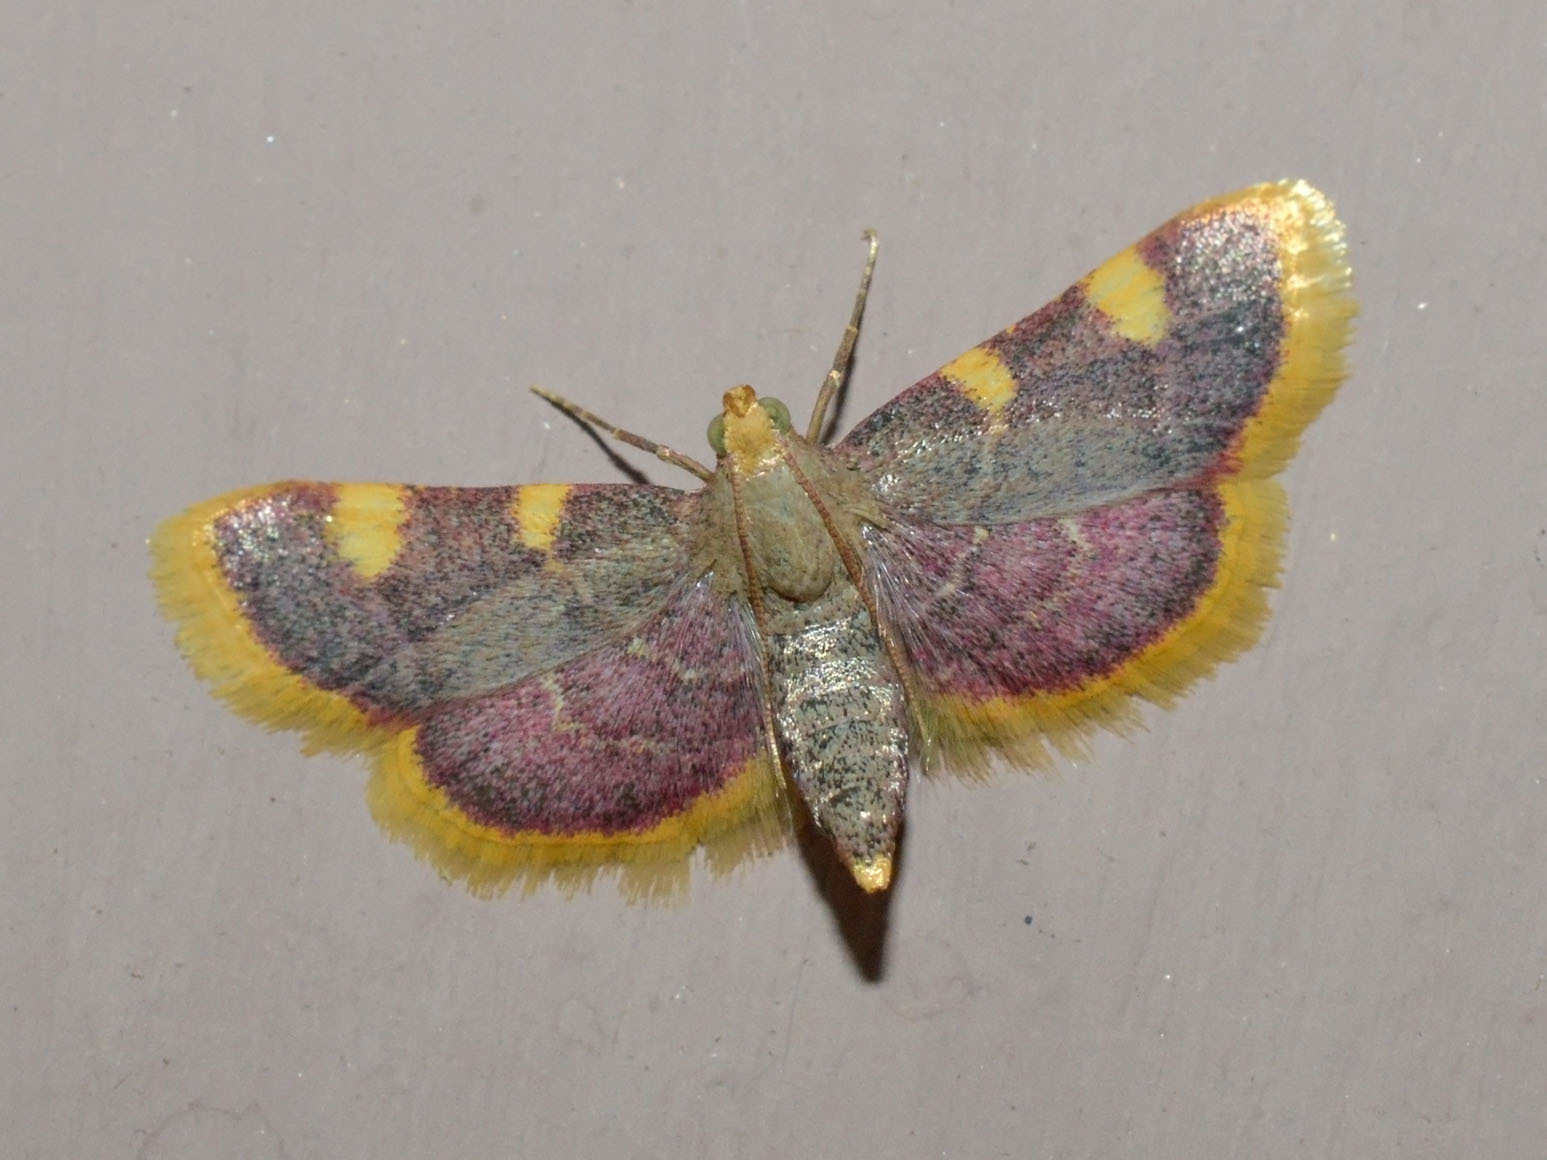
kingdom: Animalia
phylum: Arthropoda
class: Insecta
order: Lepidoptera
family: Pyralidae
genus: Hypsopygia
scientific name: Hypsopygia costalis
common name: Gold triangle
